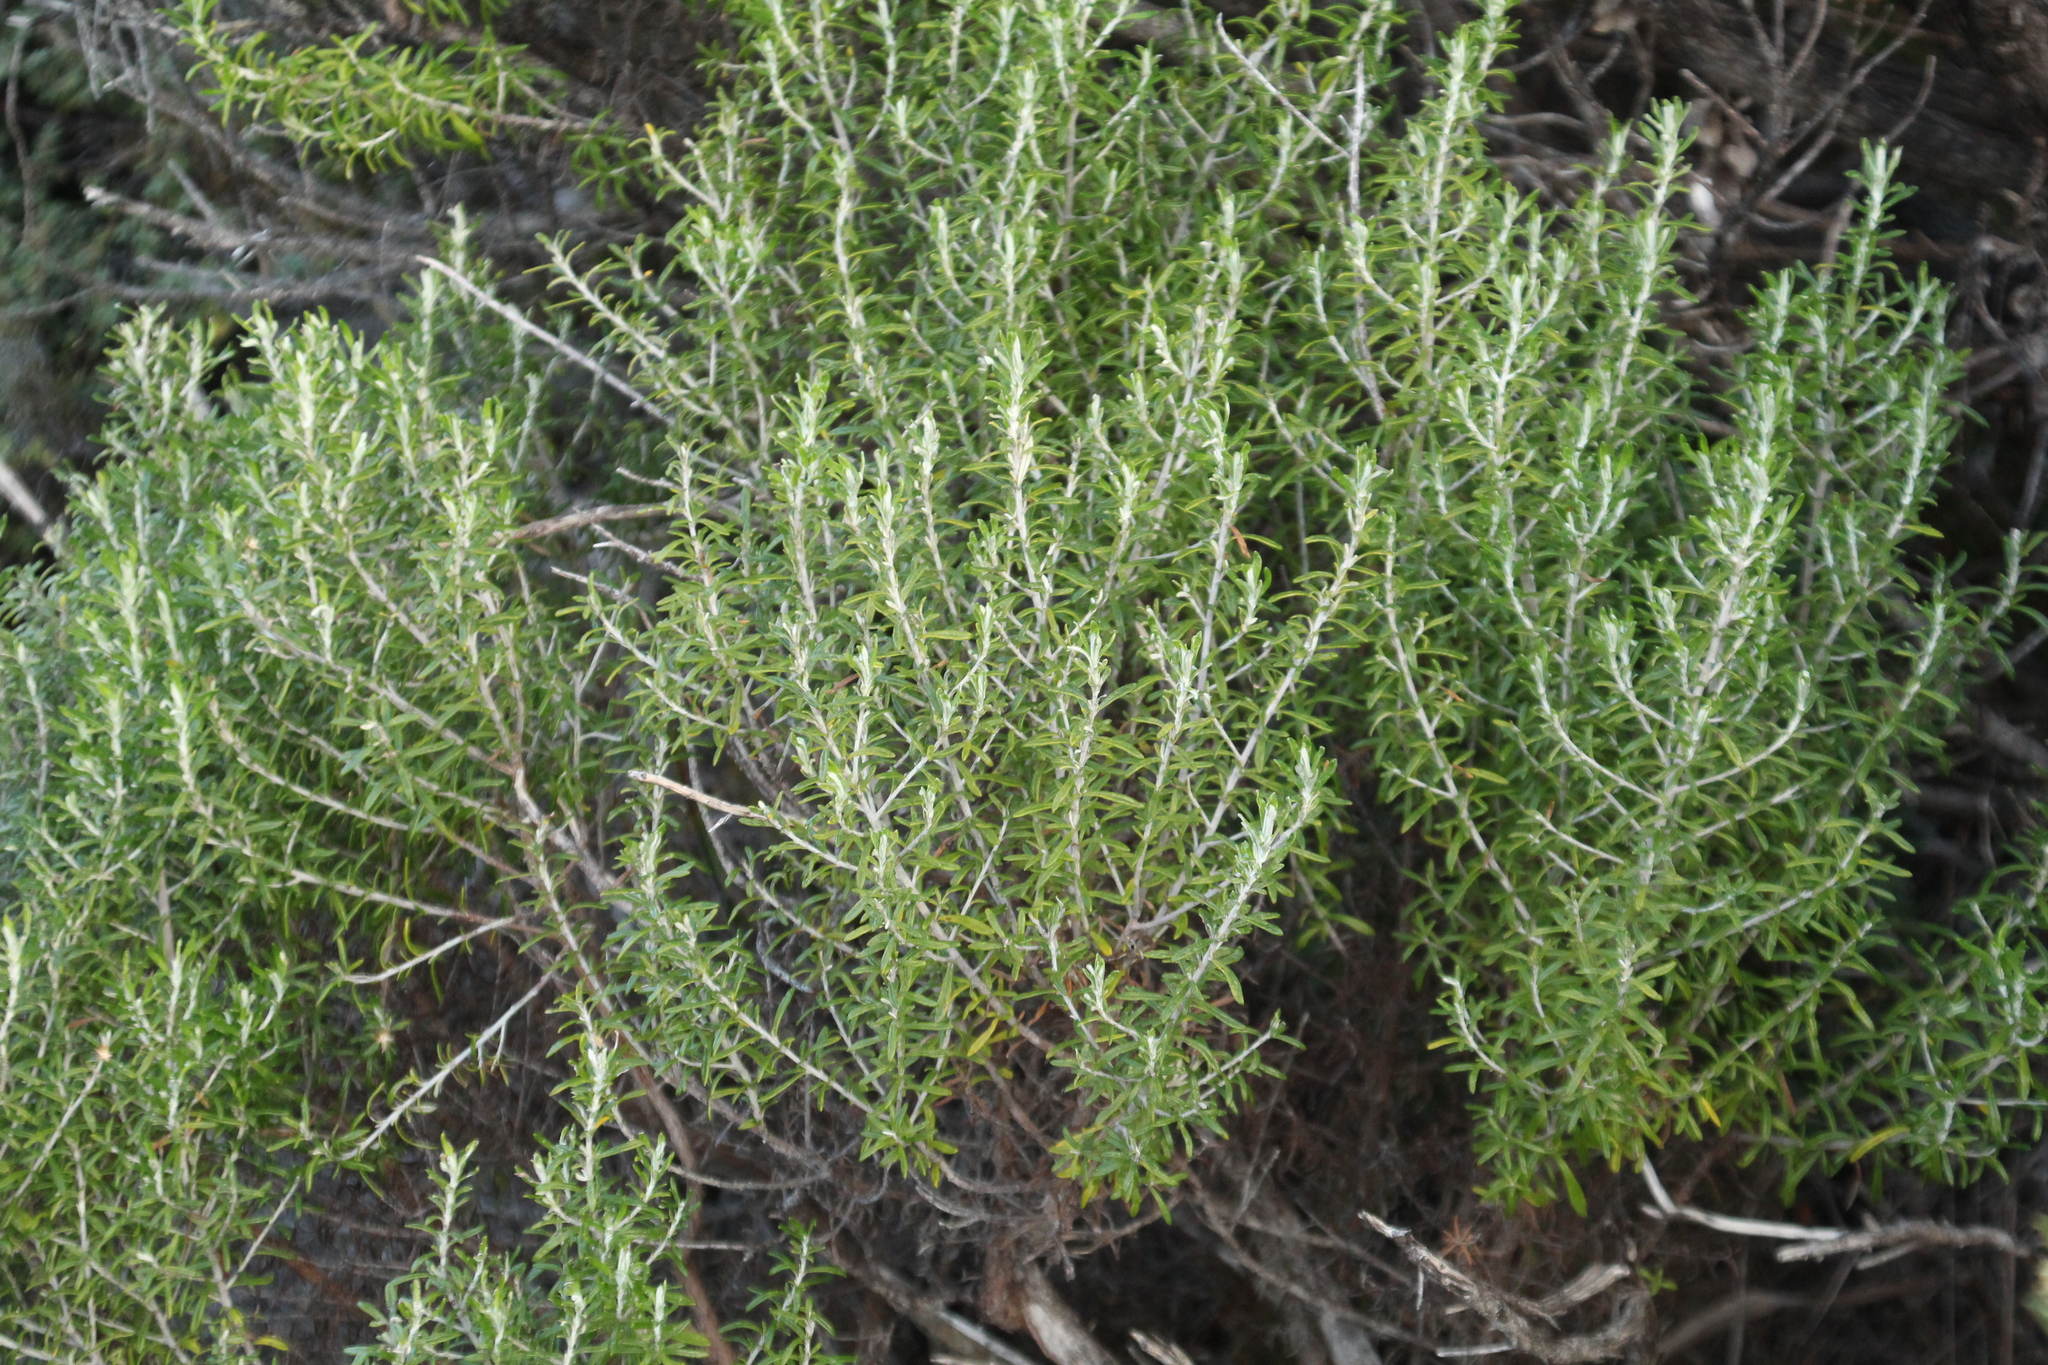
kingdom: Plantae
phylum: Tracheophyta
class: Magnoliopsida
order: Asterales
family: Asteraceae
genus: Olearia
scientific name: Olearia axillaris
